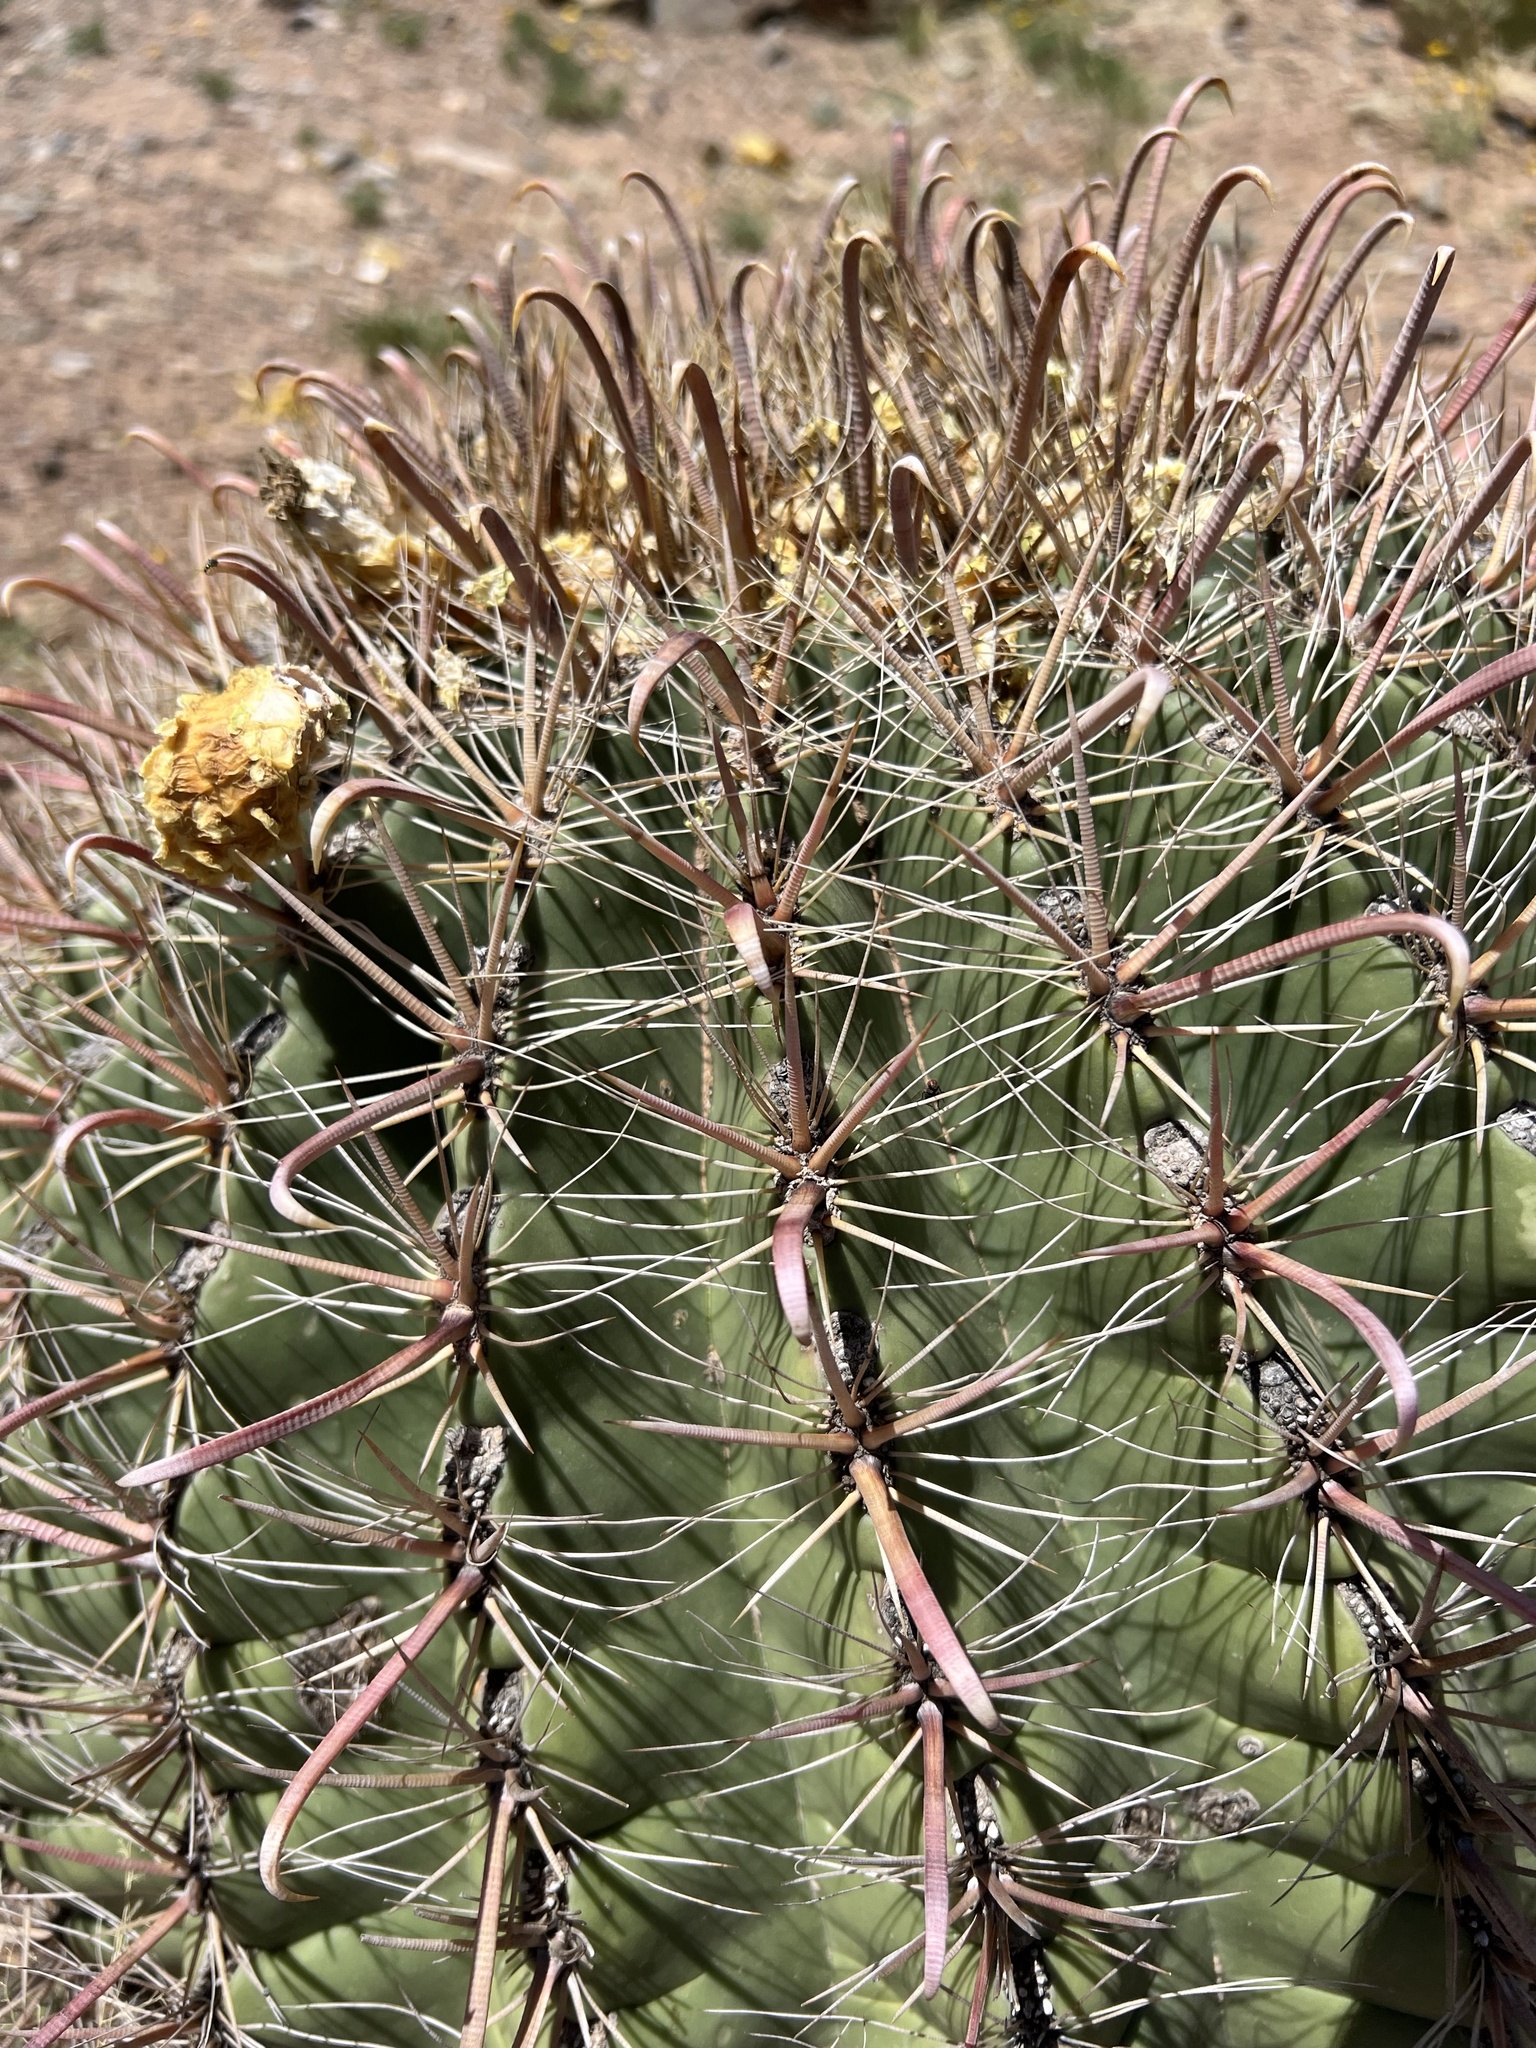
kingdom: Plantae
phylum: Tracheophyta
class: Magnoliopsida
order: Caryophyllales
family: Cactaceae
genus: Ferocactus
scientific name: Ferocactus wislizeni
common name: Candy barrel cactus
